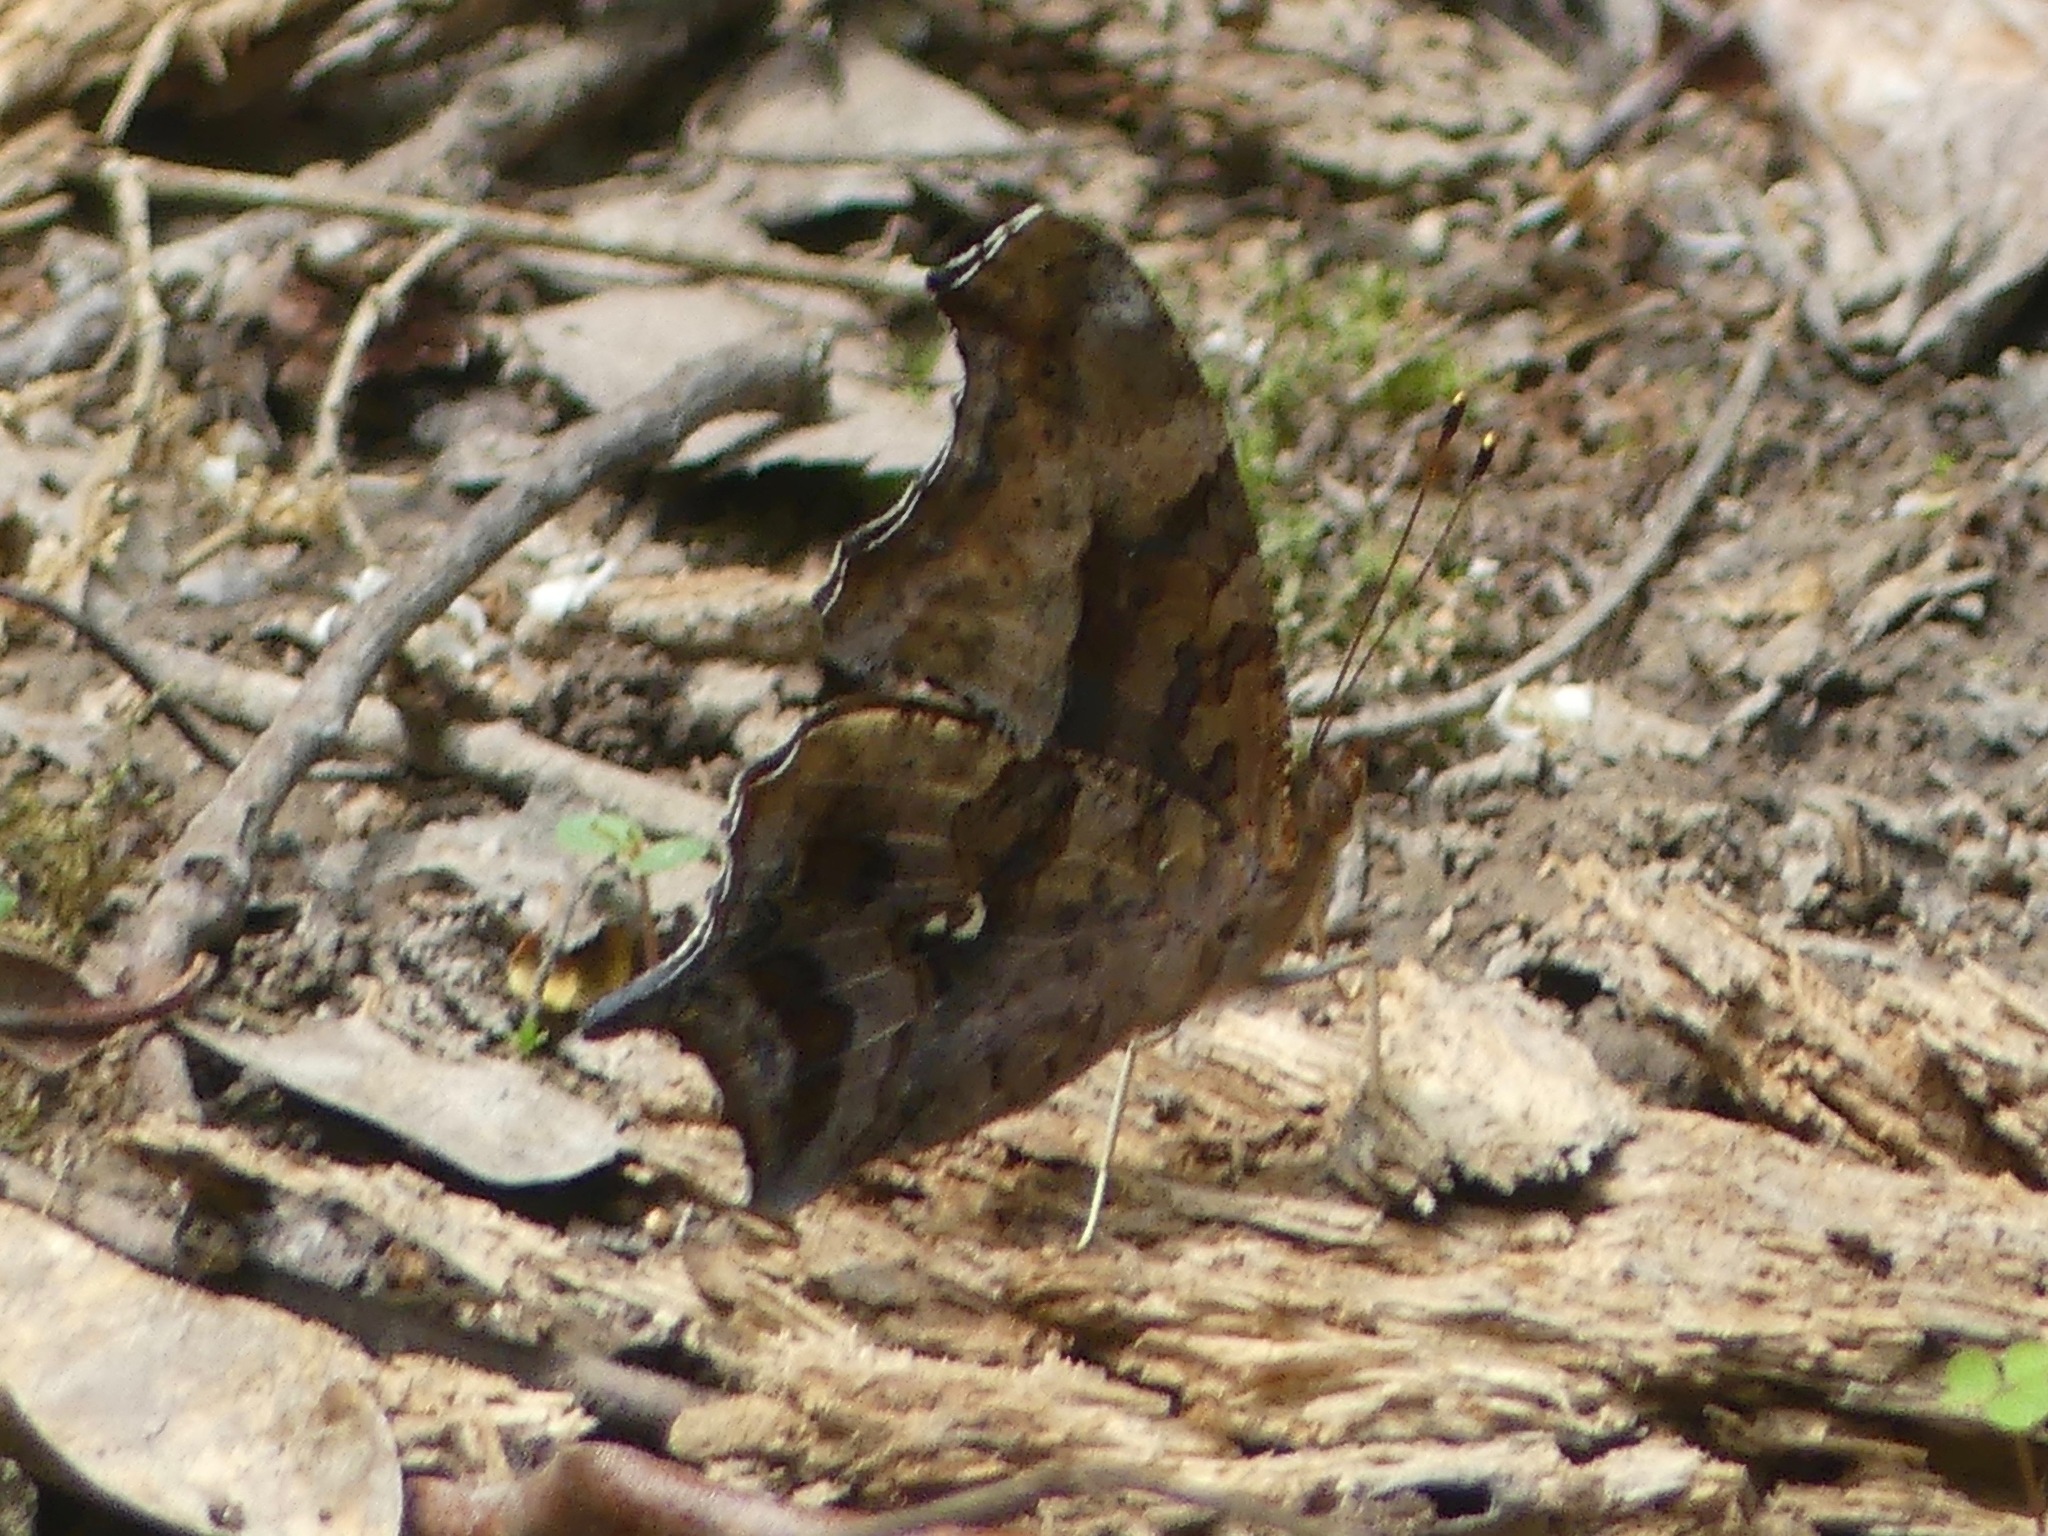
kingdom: Animalia
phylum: Arthropoda
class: Insecta
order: Lepidoptera
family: Nymphalidae
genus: Polygonia
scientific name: Polygonia interrogationis
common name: Question mark
